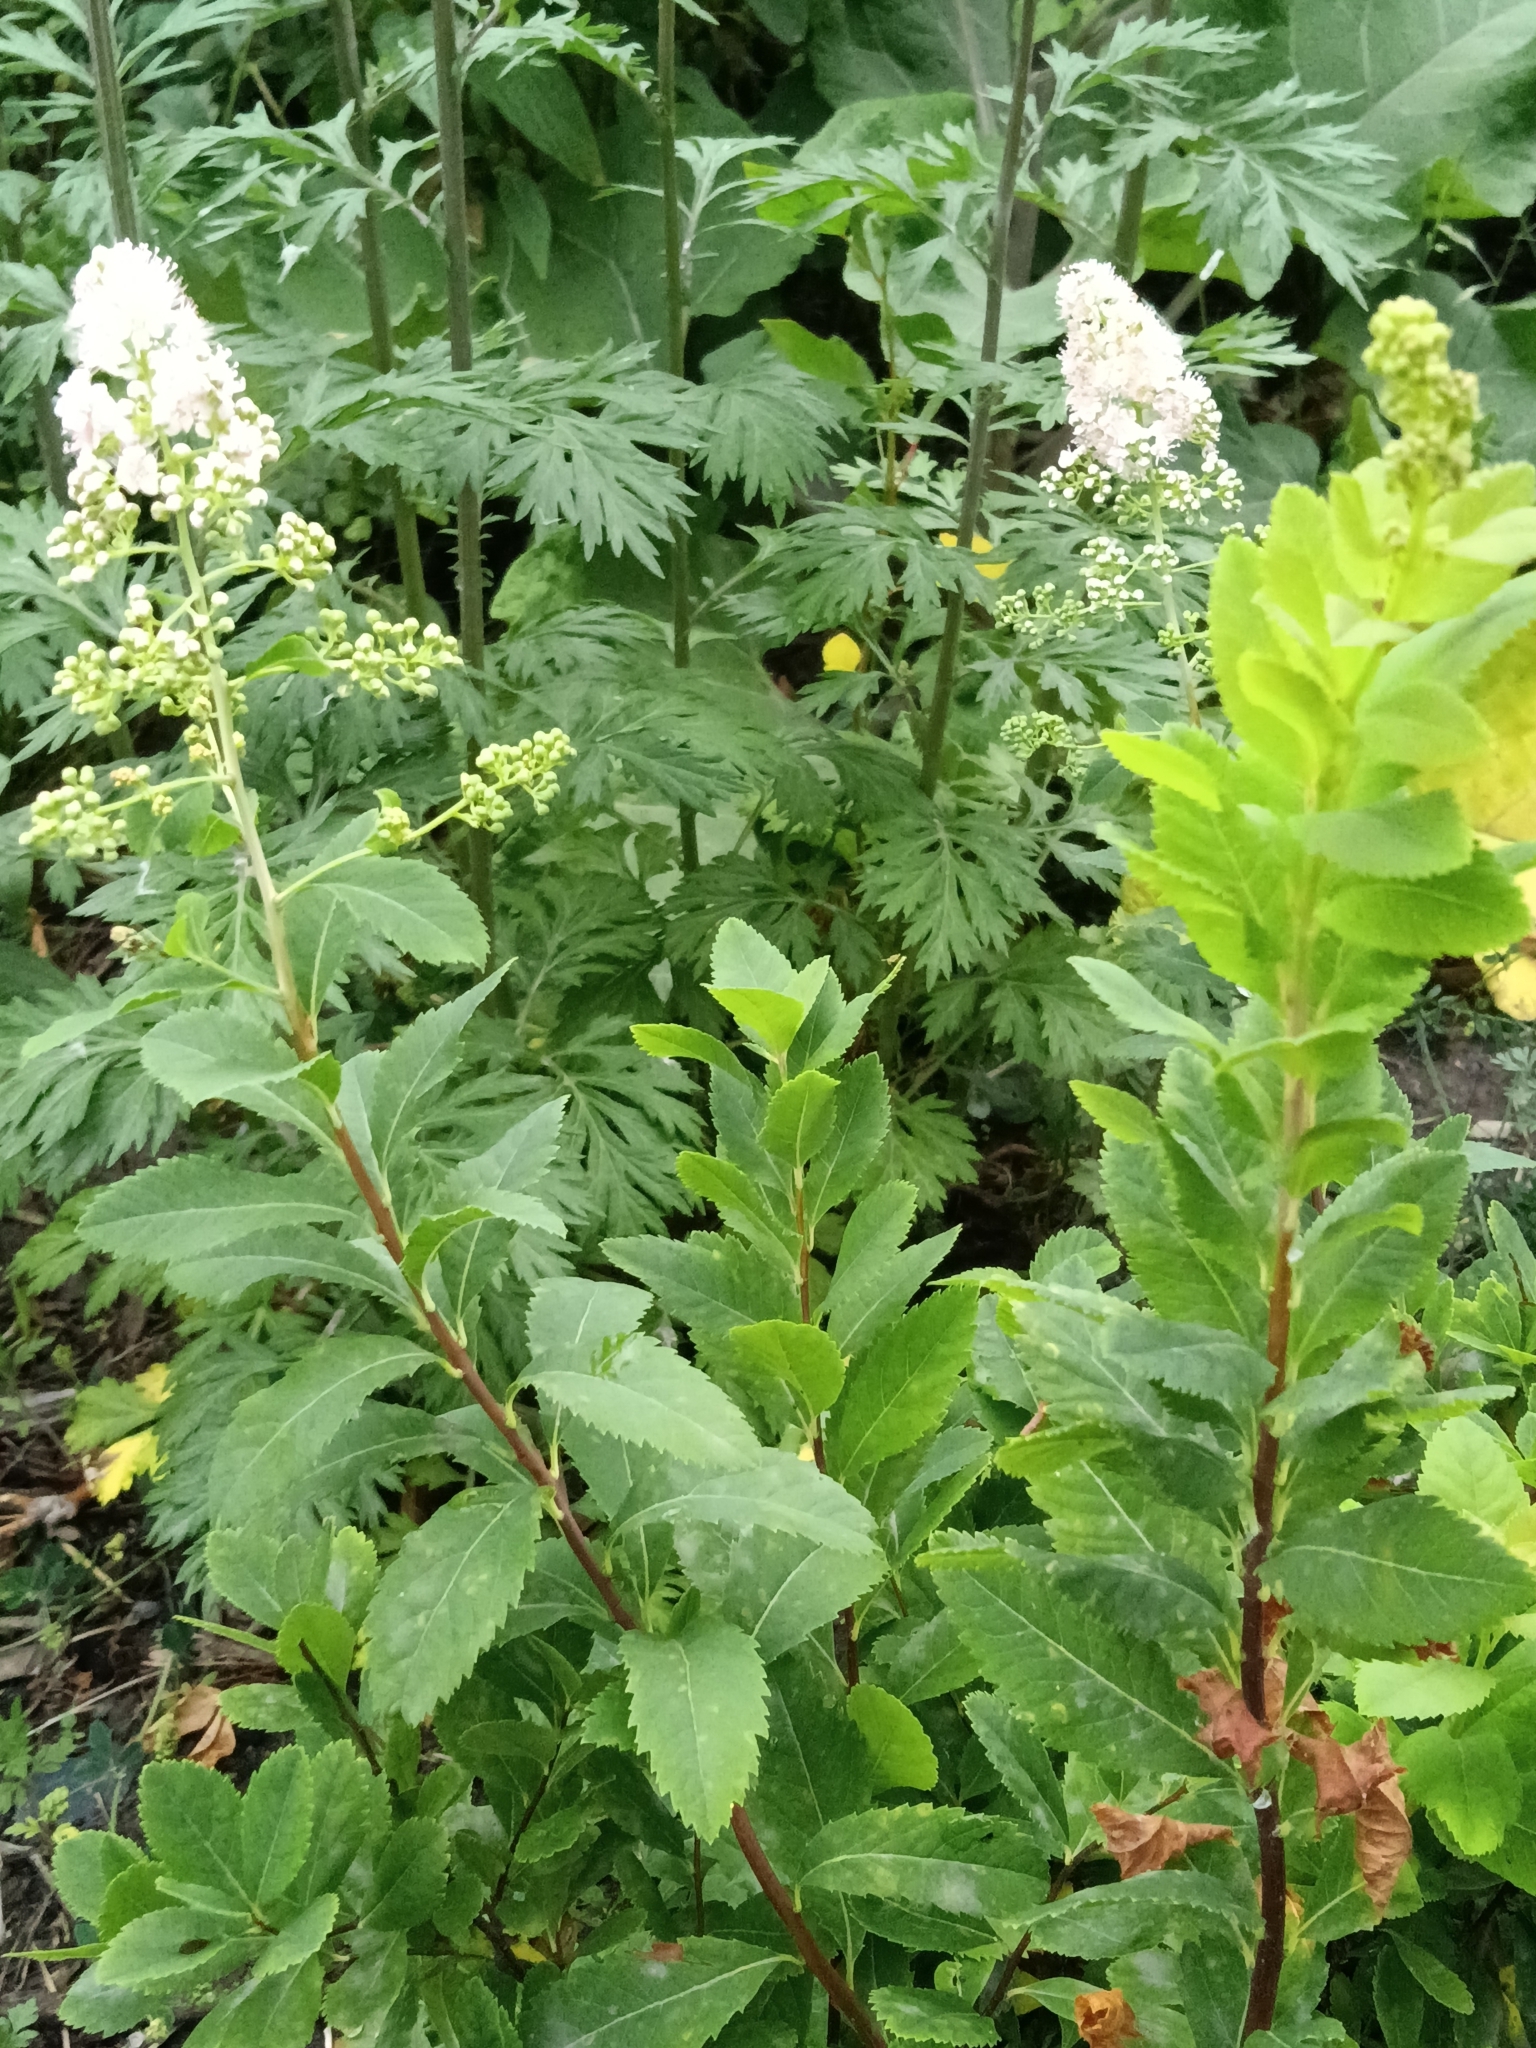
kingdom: Plantae
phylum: Tracheophyta
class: Magnoliopsida
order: Rosales
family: Rosaceae
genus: Spiraea
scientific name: Spiraea alba
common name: Pale bridewort
